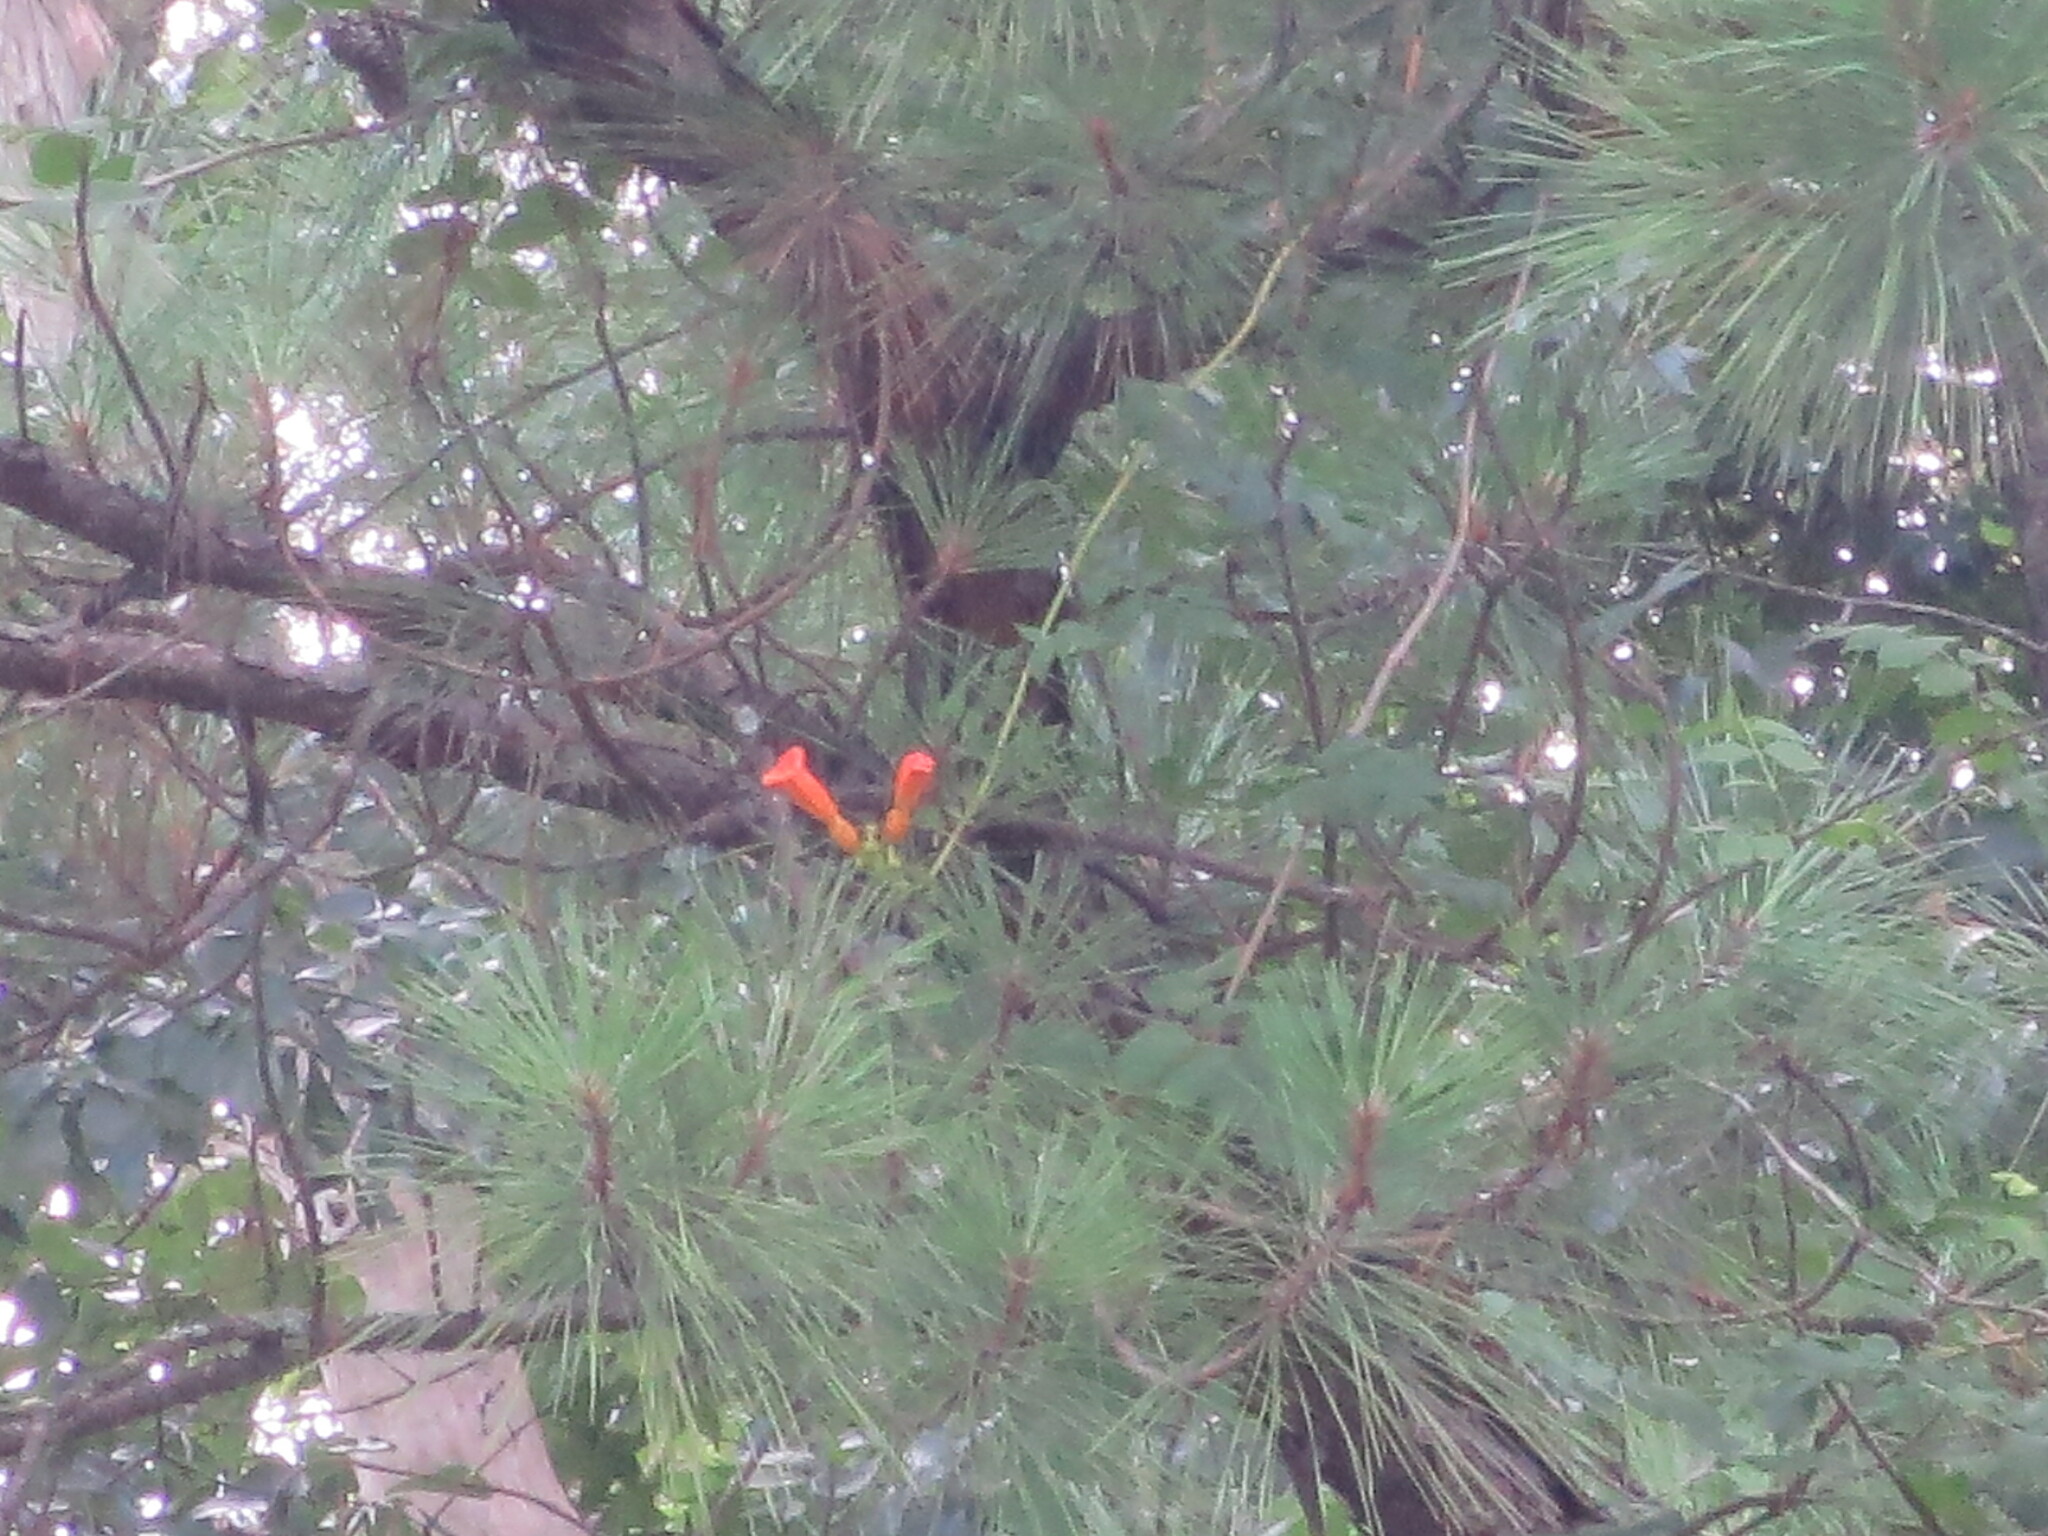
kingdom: Plantae
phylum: Tracheophyta
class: Magnoliopsida
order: Lamiales
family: Bignoniaceae
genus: Campsis
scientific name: Campsis radicans
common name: Trumpet-creeper
